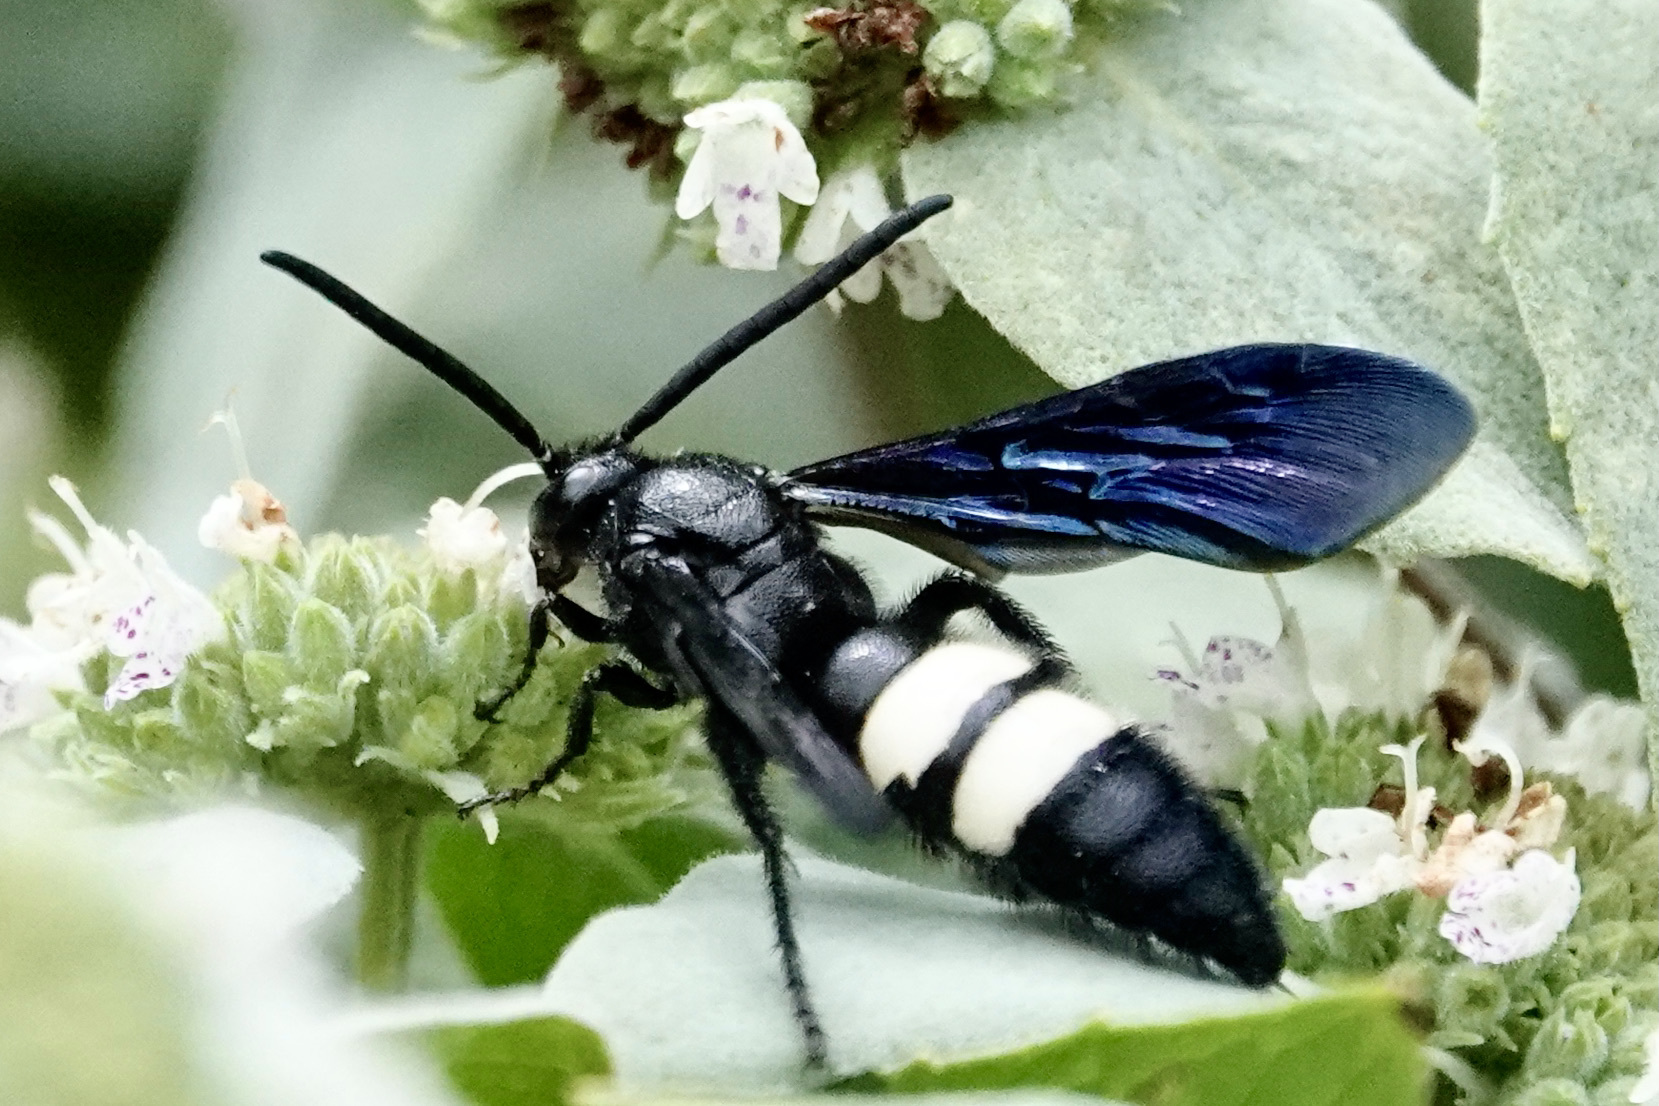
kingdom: Animalia
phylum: Arthropoda
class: Insecta
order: Hymenoptera
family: Scoliidae
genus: Scolia
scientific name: Scolia bicincta
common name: Double-banded scoliid wasp
